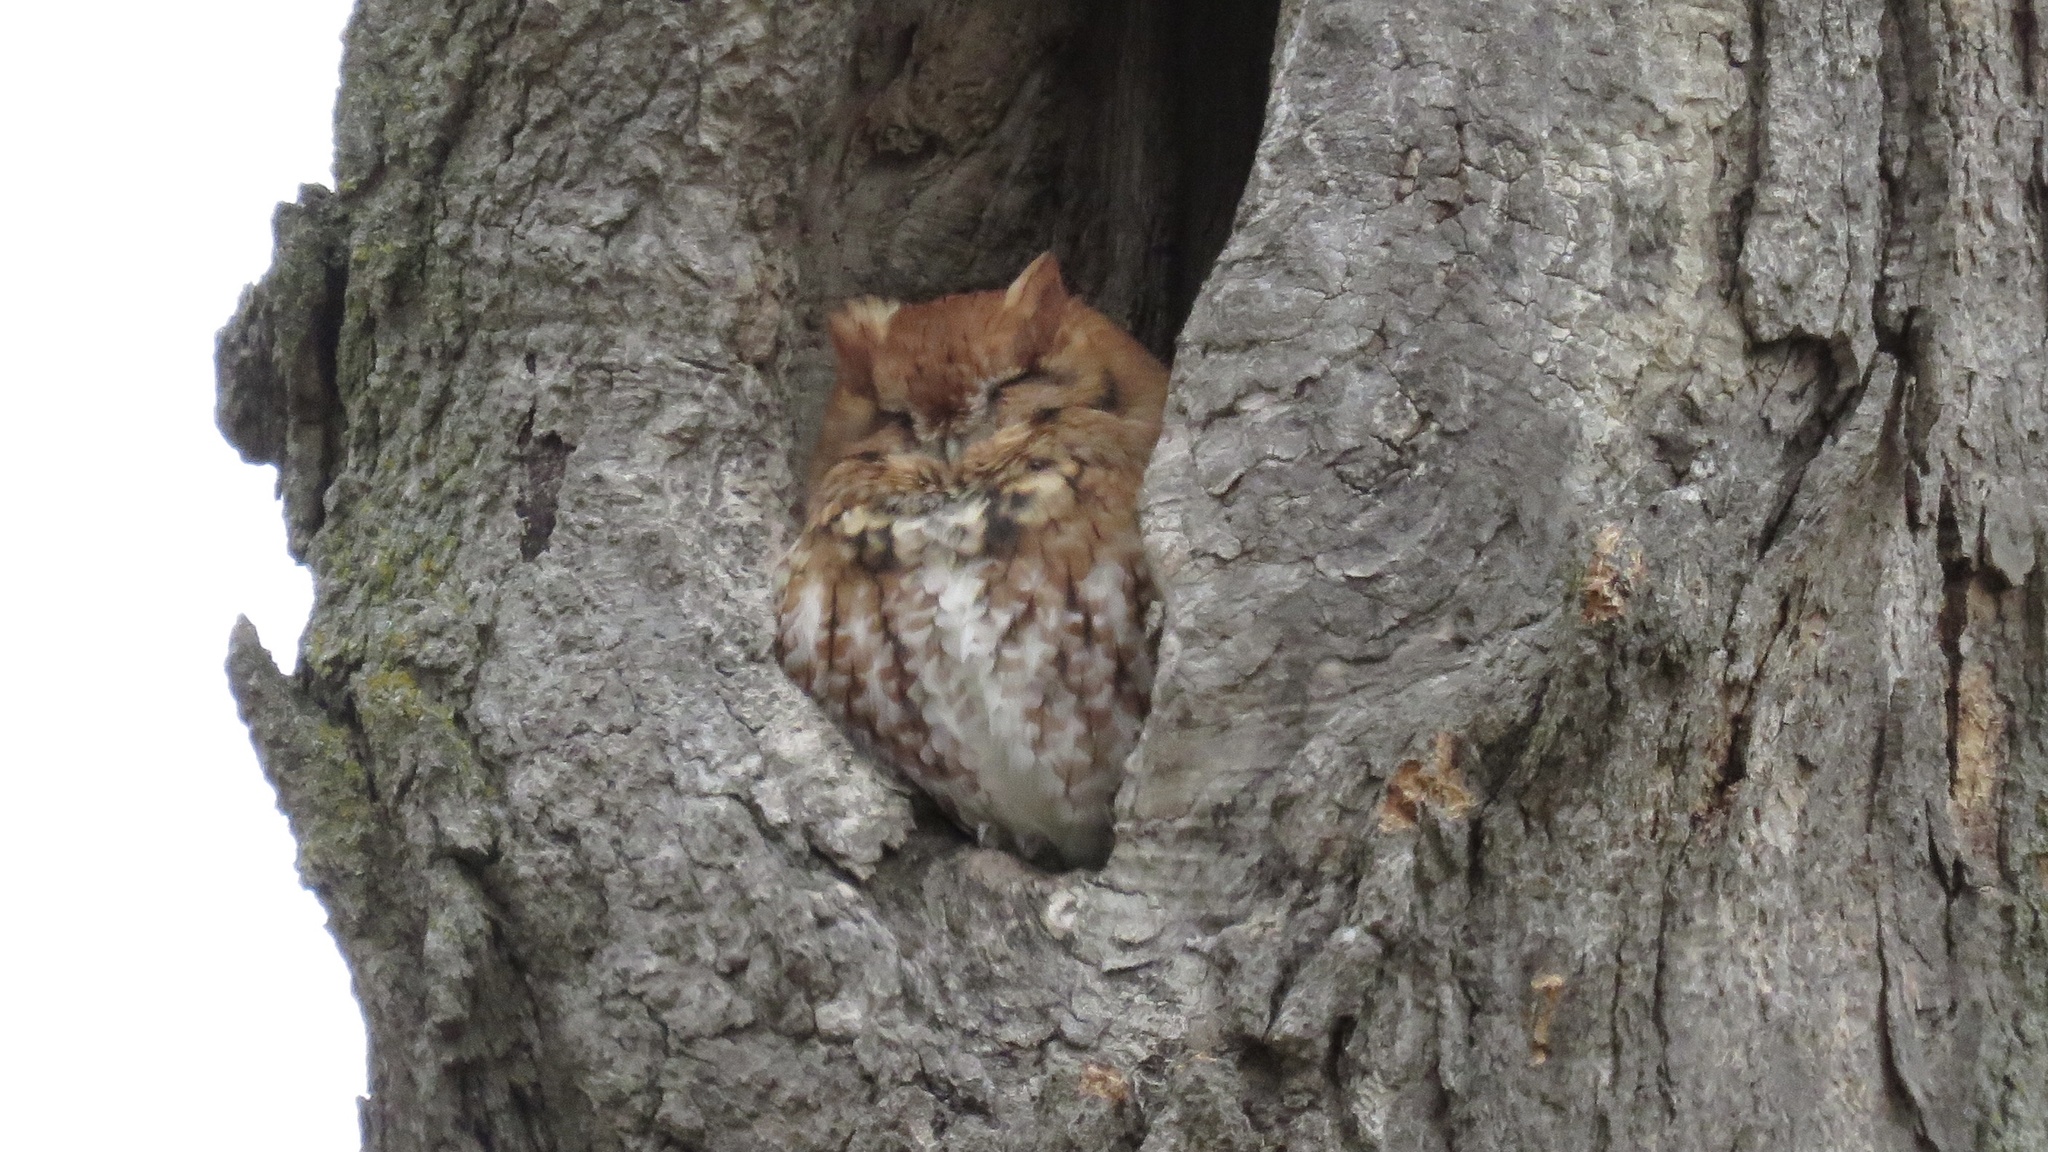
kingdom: Animalia
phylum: Chordata
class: Aves
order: Strigiformes
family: Strigidae
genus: Megascops
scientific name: Megascops asio
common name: Eastern screech-owl
